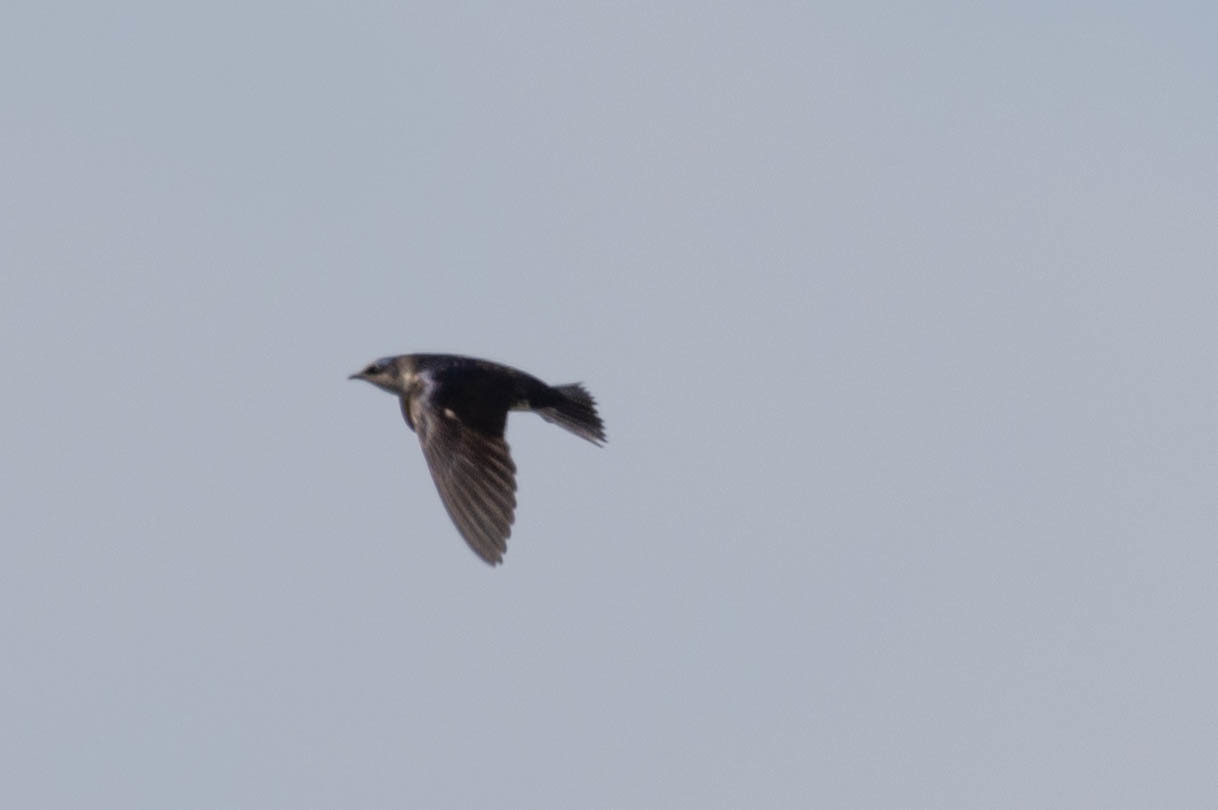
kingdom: Animalia
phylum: Chordata
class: Aves
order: Passeriformes
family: Hirundinidae
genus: Progne
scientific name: Progne subis
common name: Purple martin
